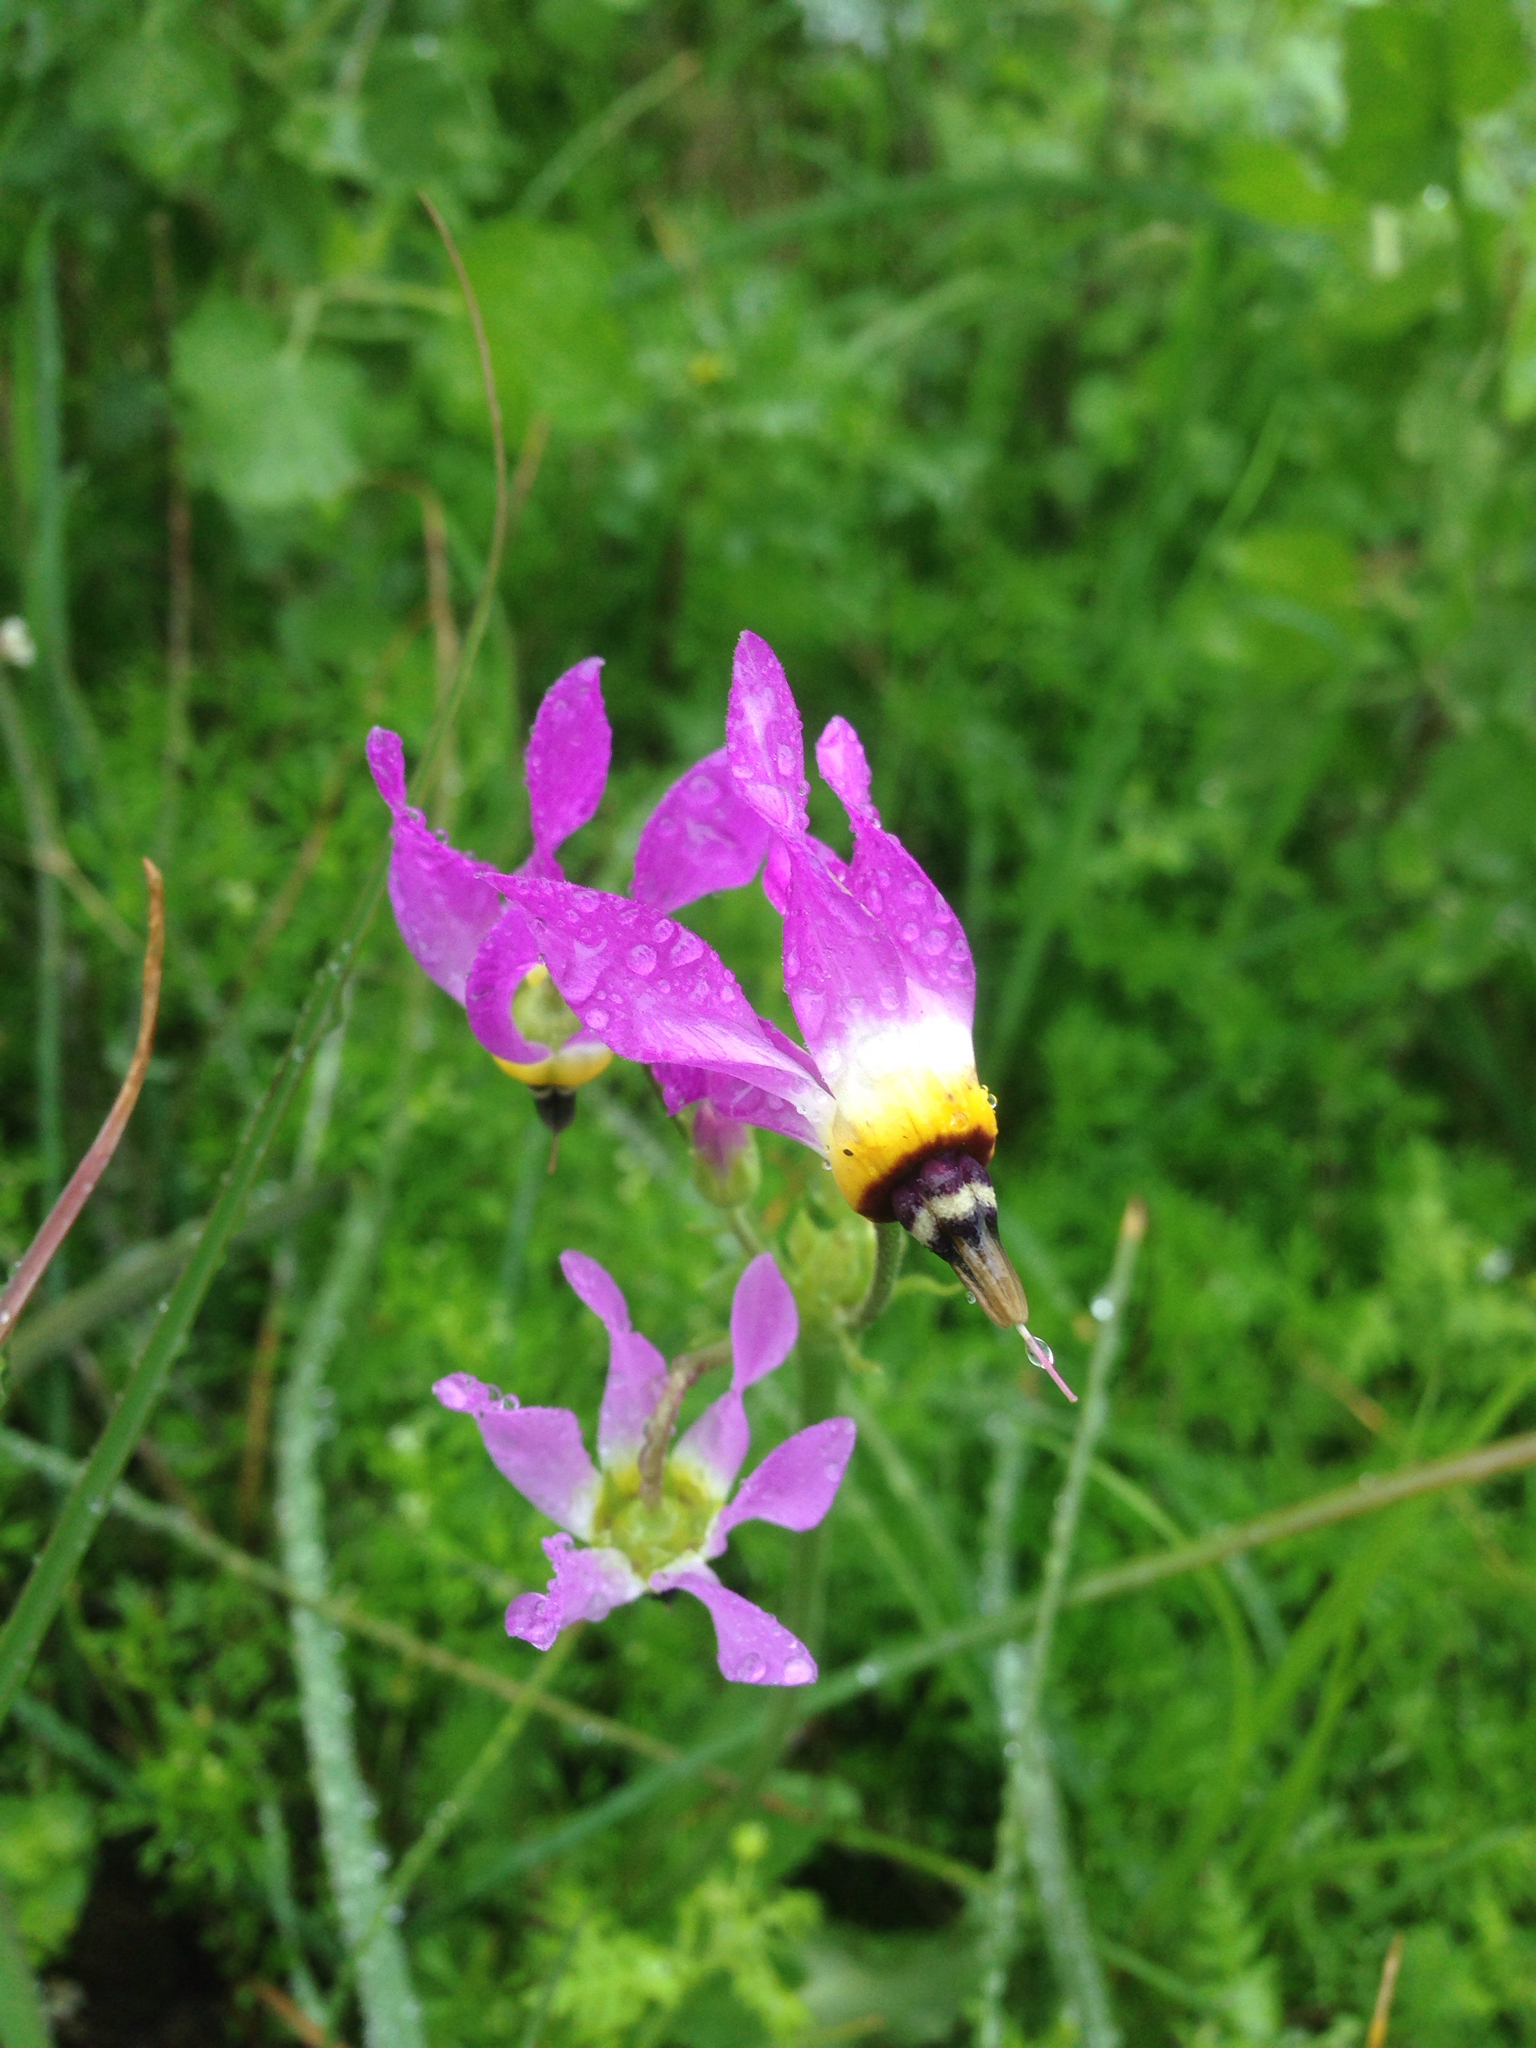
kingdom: Plantae
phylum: Tracheophyta
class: Magnoliopsida
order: Ericales
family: Primulaceae
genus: Dodecatheon
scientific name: Dodecatheon clevelandii
